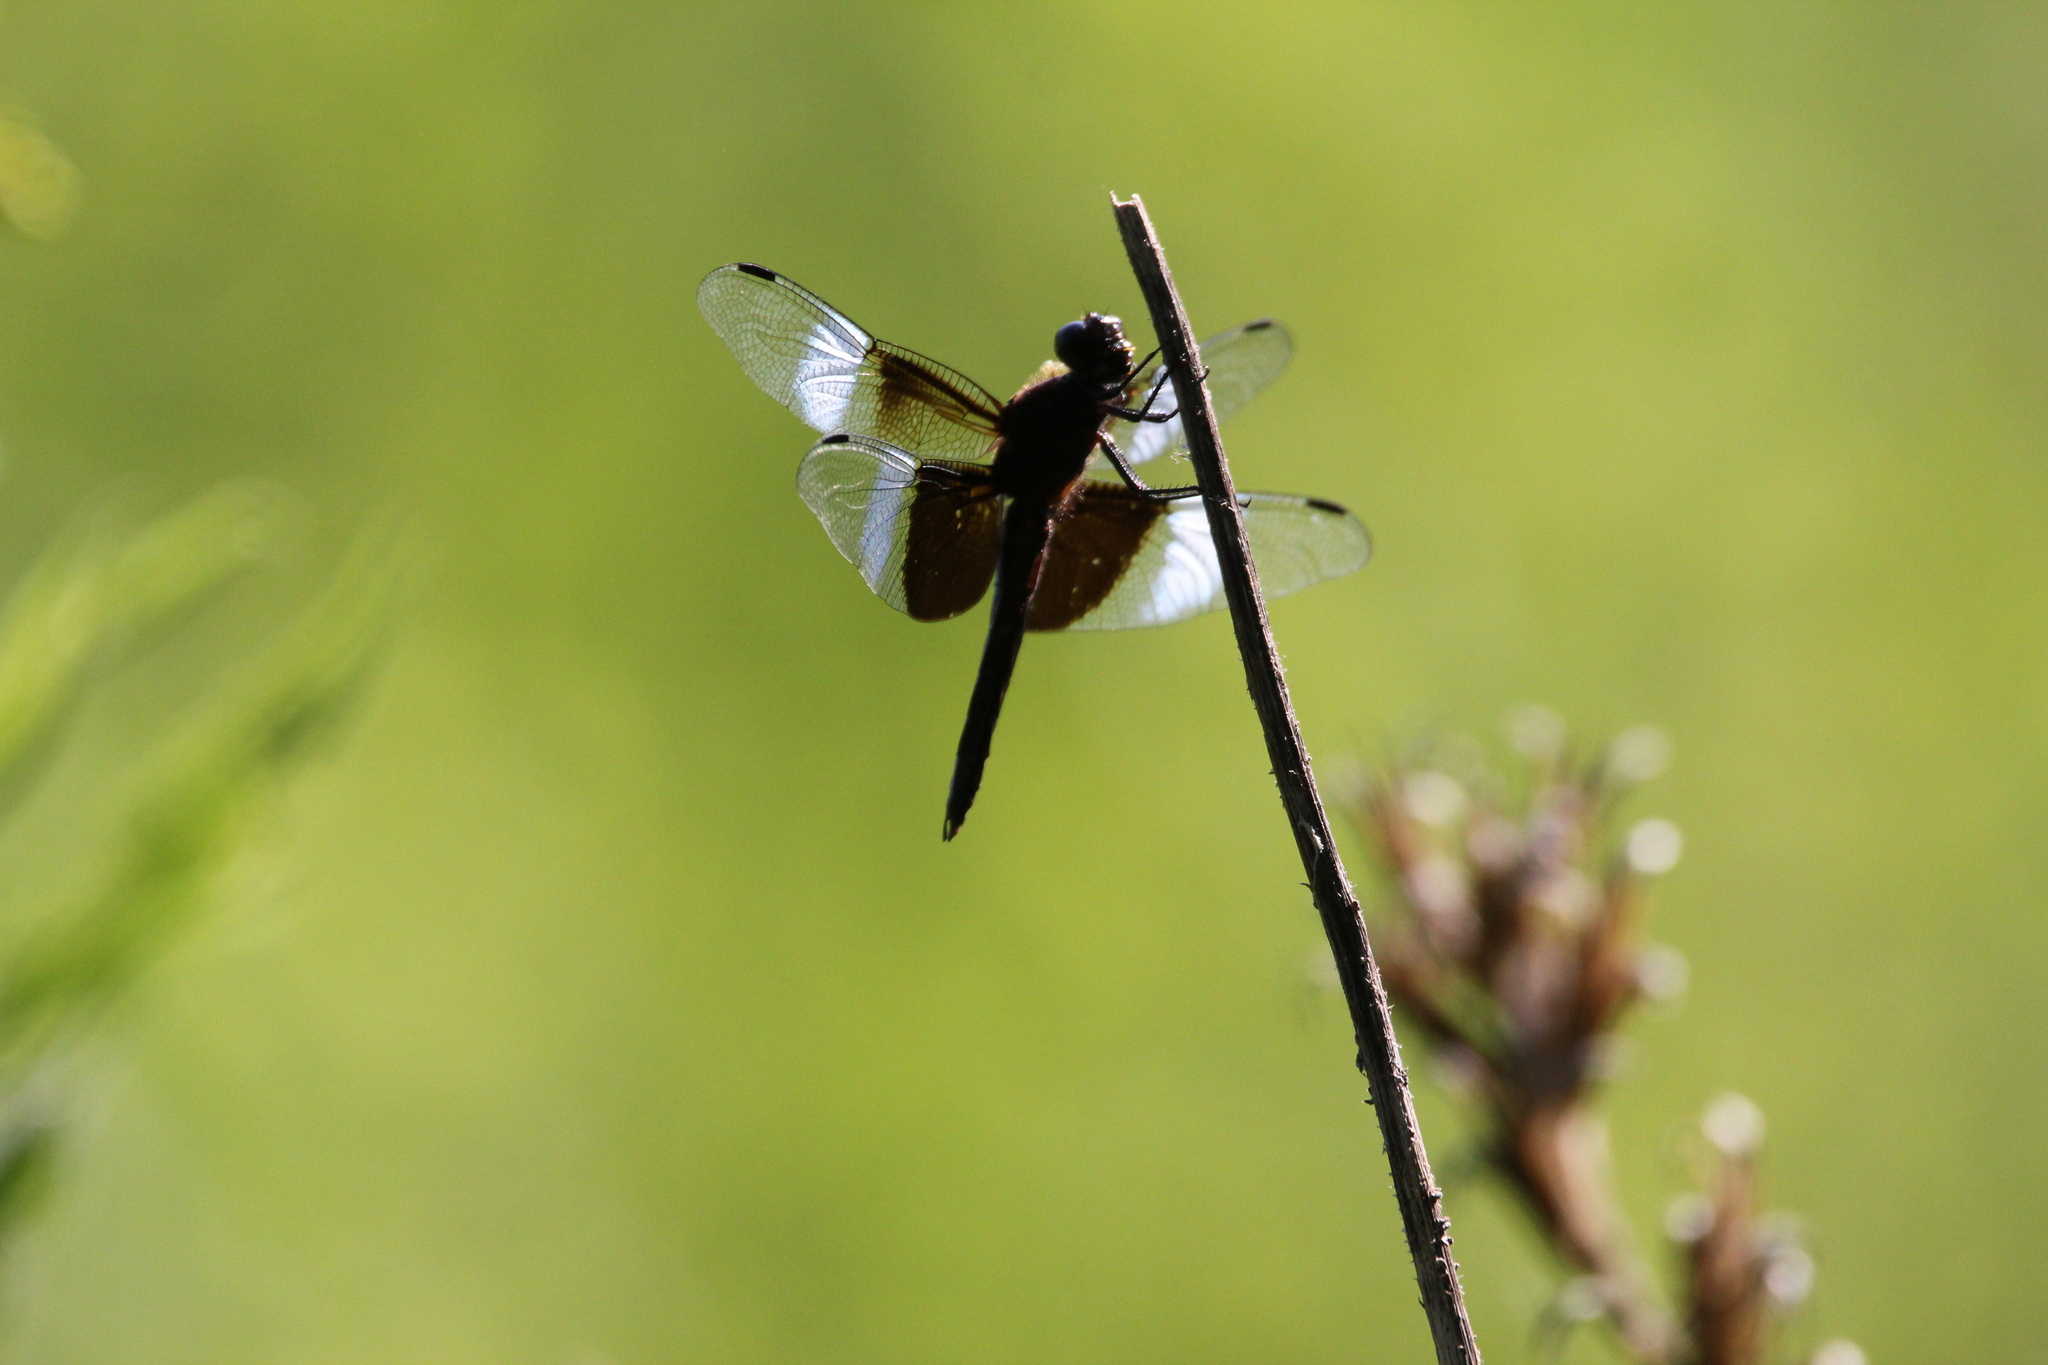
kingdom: Animalia
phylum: Arthropoda
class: Insecta
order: Odonata
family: Libellulidae
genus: Libellula
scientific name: Libellula luctuosa
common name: Widow skimmer
